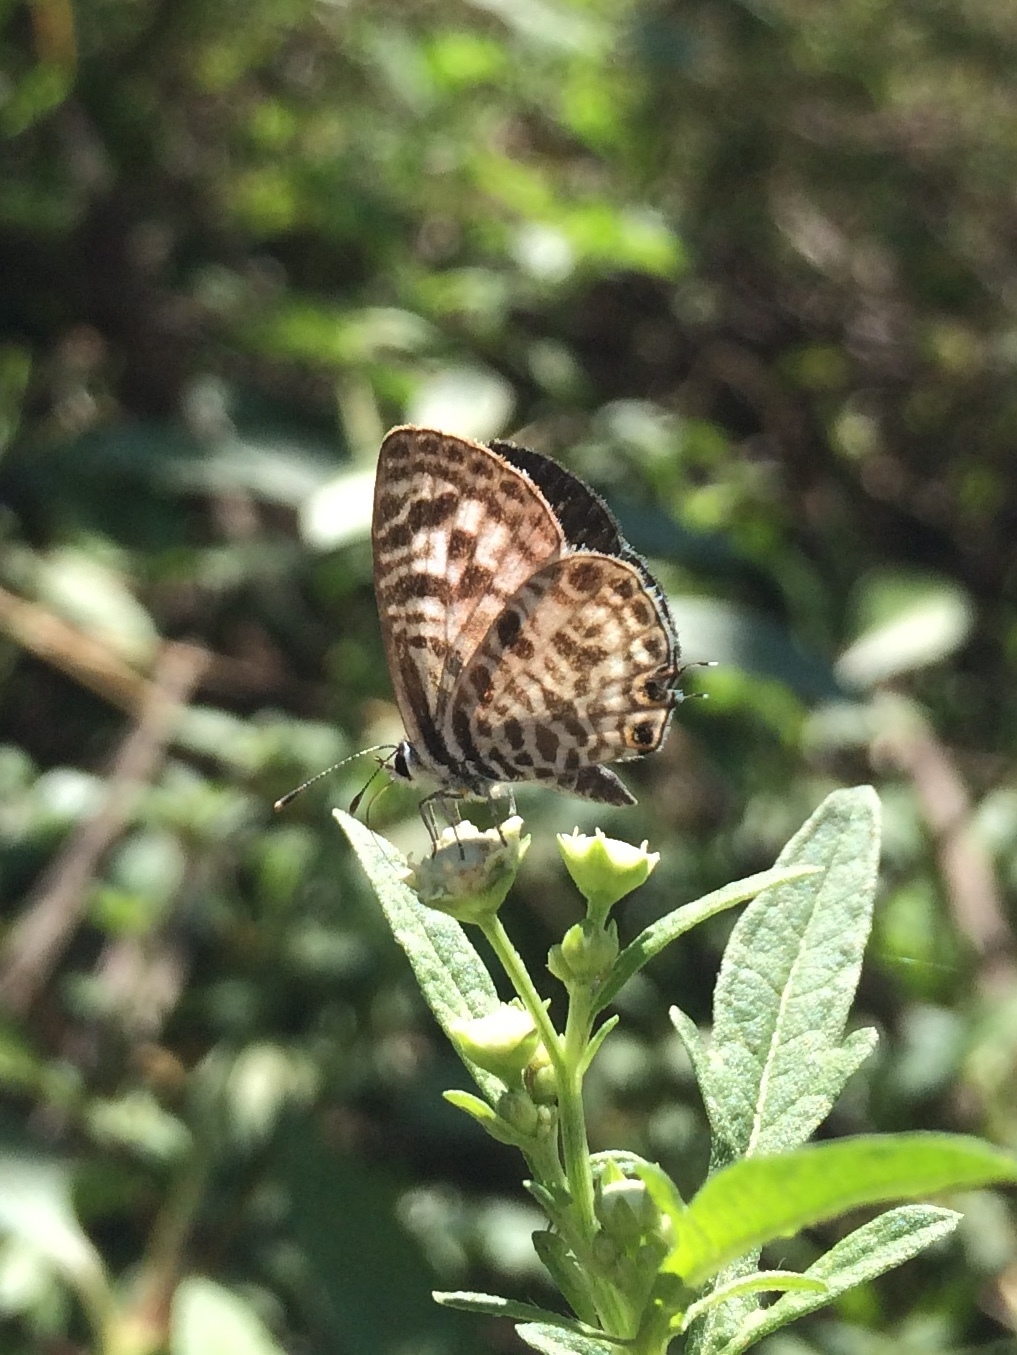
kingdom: Animalia
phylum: Arthropoda
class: Insecta
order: Lepidoptera
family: Lycaenidae
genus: Leptotes
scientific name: Leptotes plinius
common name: Zebra blue
